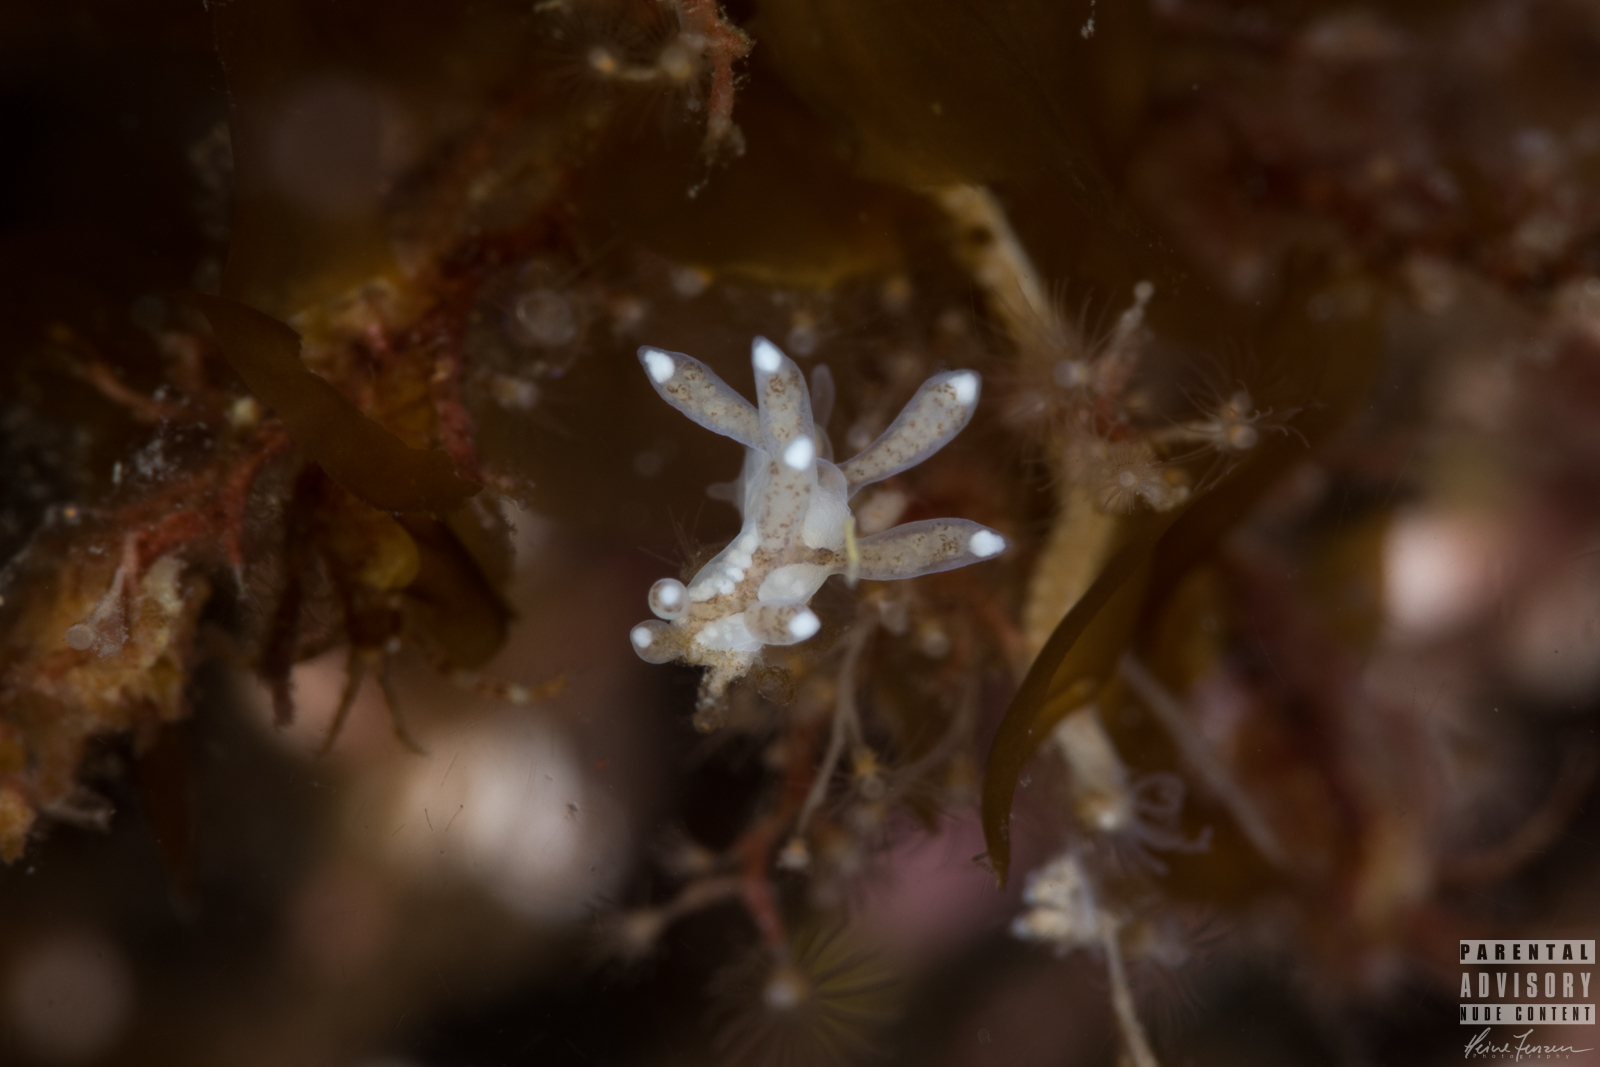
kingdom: Animalia
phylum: Mollusca
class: Gastropoda
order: Nudibranchia
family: Tergipedidae
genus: Tergipes
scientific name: Tergipes tergipes
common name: Johnston's balloon eolis
